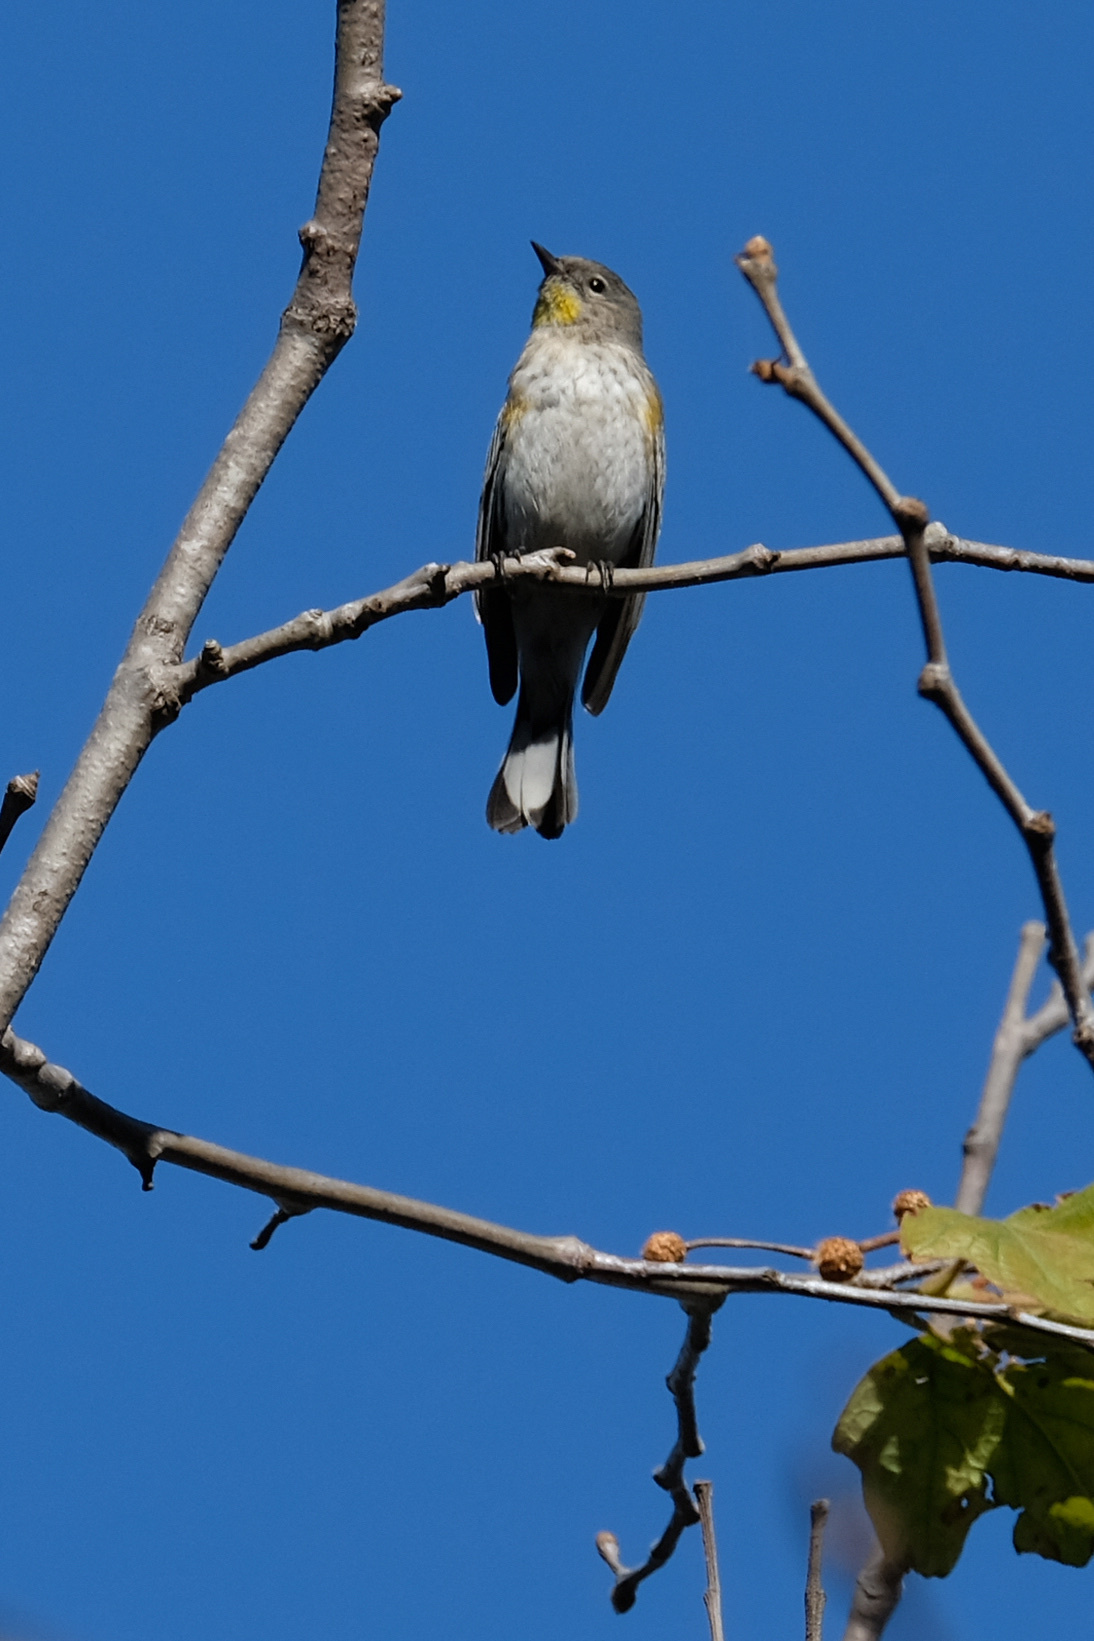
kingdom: Animalia
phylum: Chordata
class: Aves
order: Passeriformes
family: Parulidae
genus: Setophaga
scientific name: Setophaga coronata
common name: Myrtle warbler
